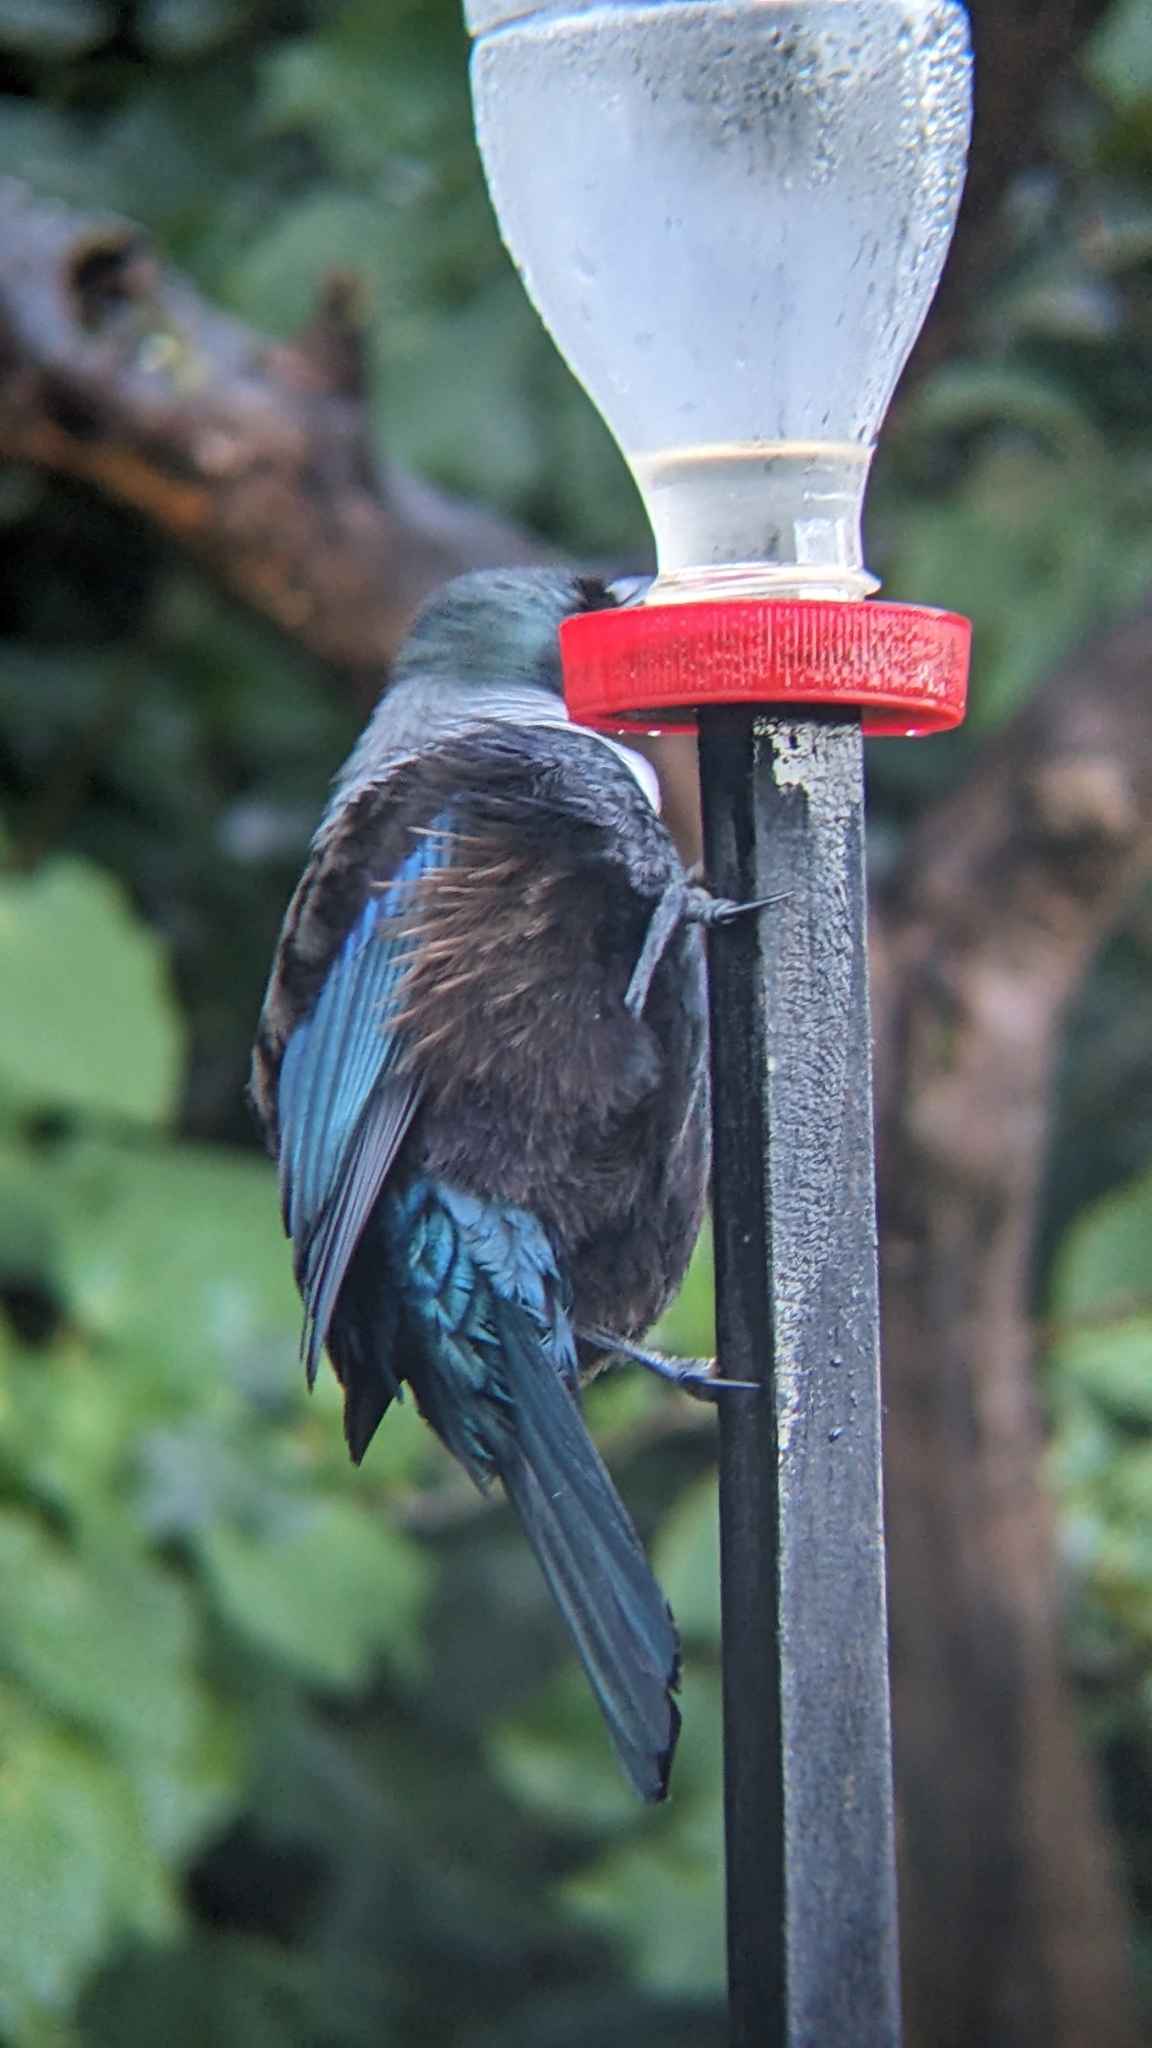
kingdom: Animalia
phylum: Chordata
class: Aves
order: Passeriformes
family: Meliphagidae
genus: Prosthemadera
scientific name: Prosthemadera novaeseelandiae
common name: Tui
